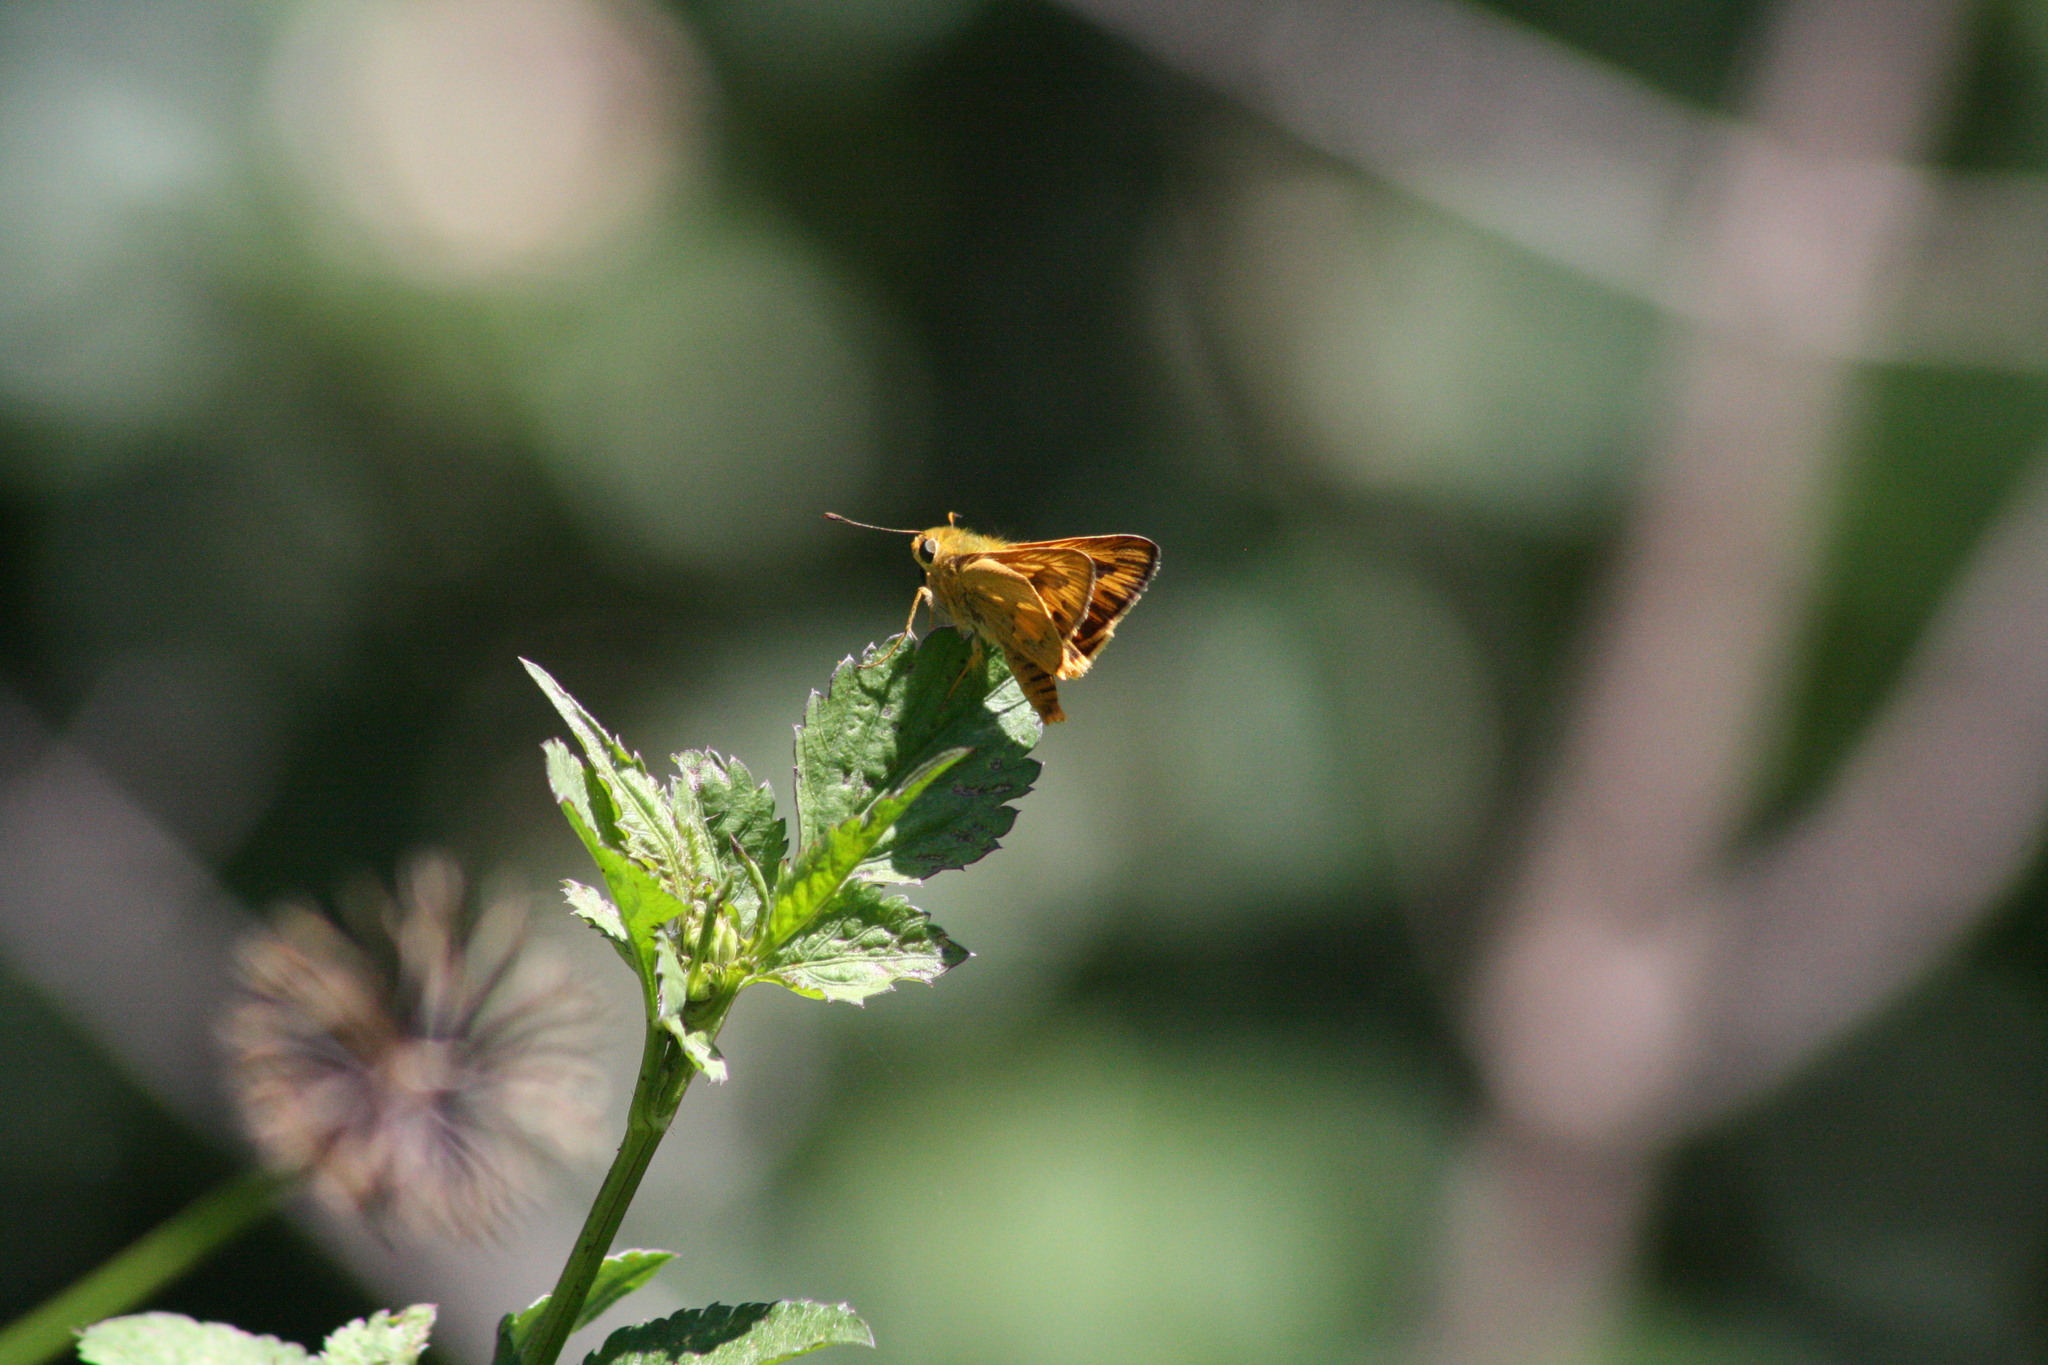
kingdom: Animalia
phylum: Arthropoda
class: Insecta
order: Lepidoptera
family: Hesperiidae
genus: Telicota
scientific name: Telicota colon
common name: Pale palm dart
